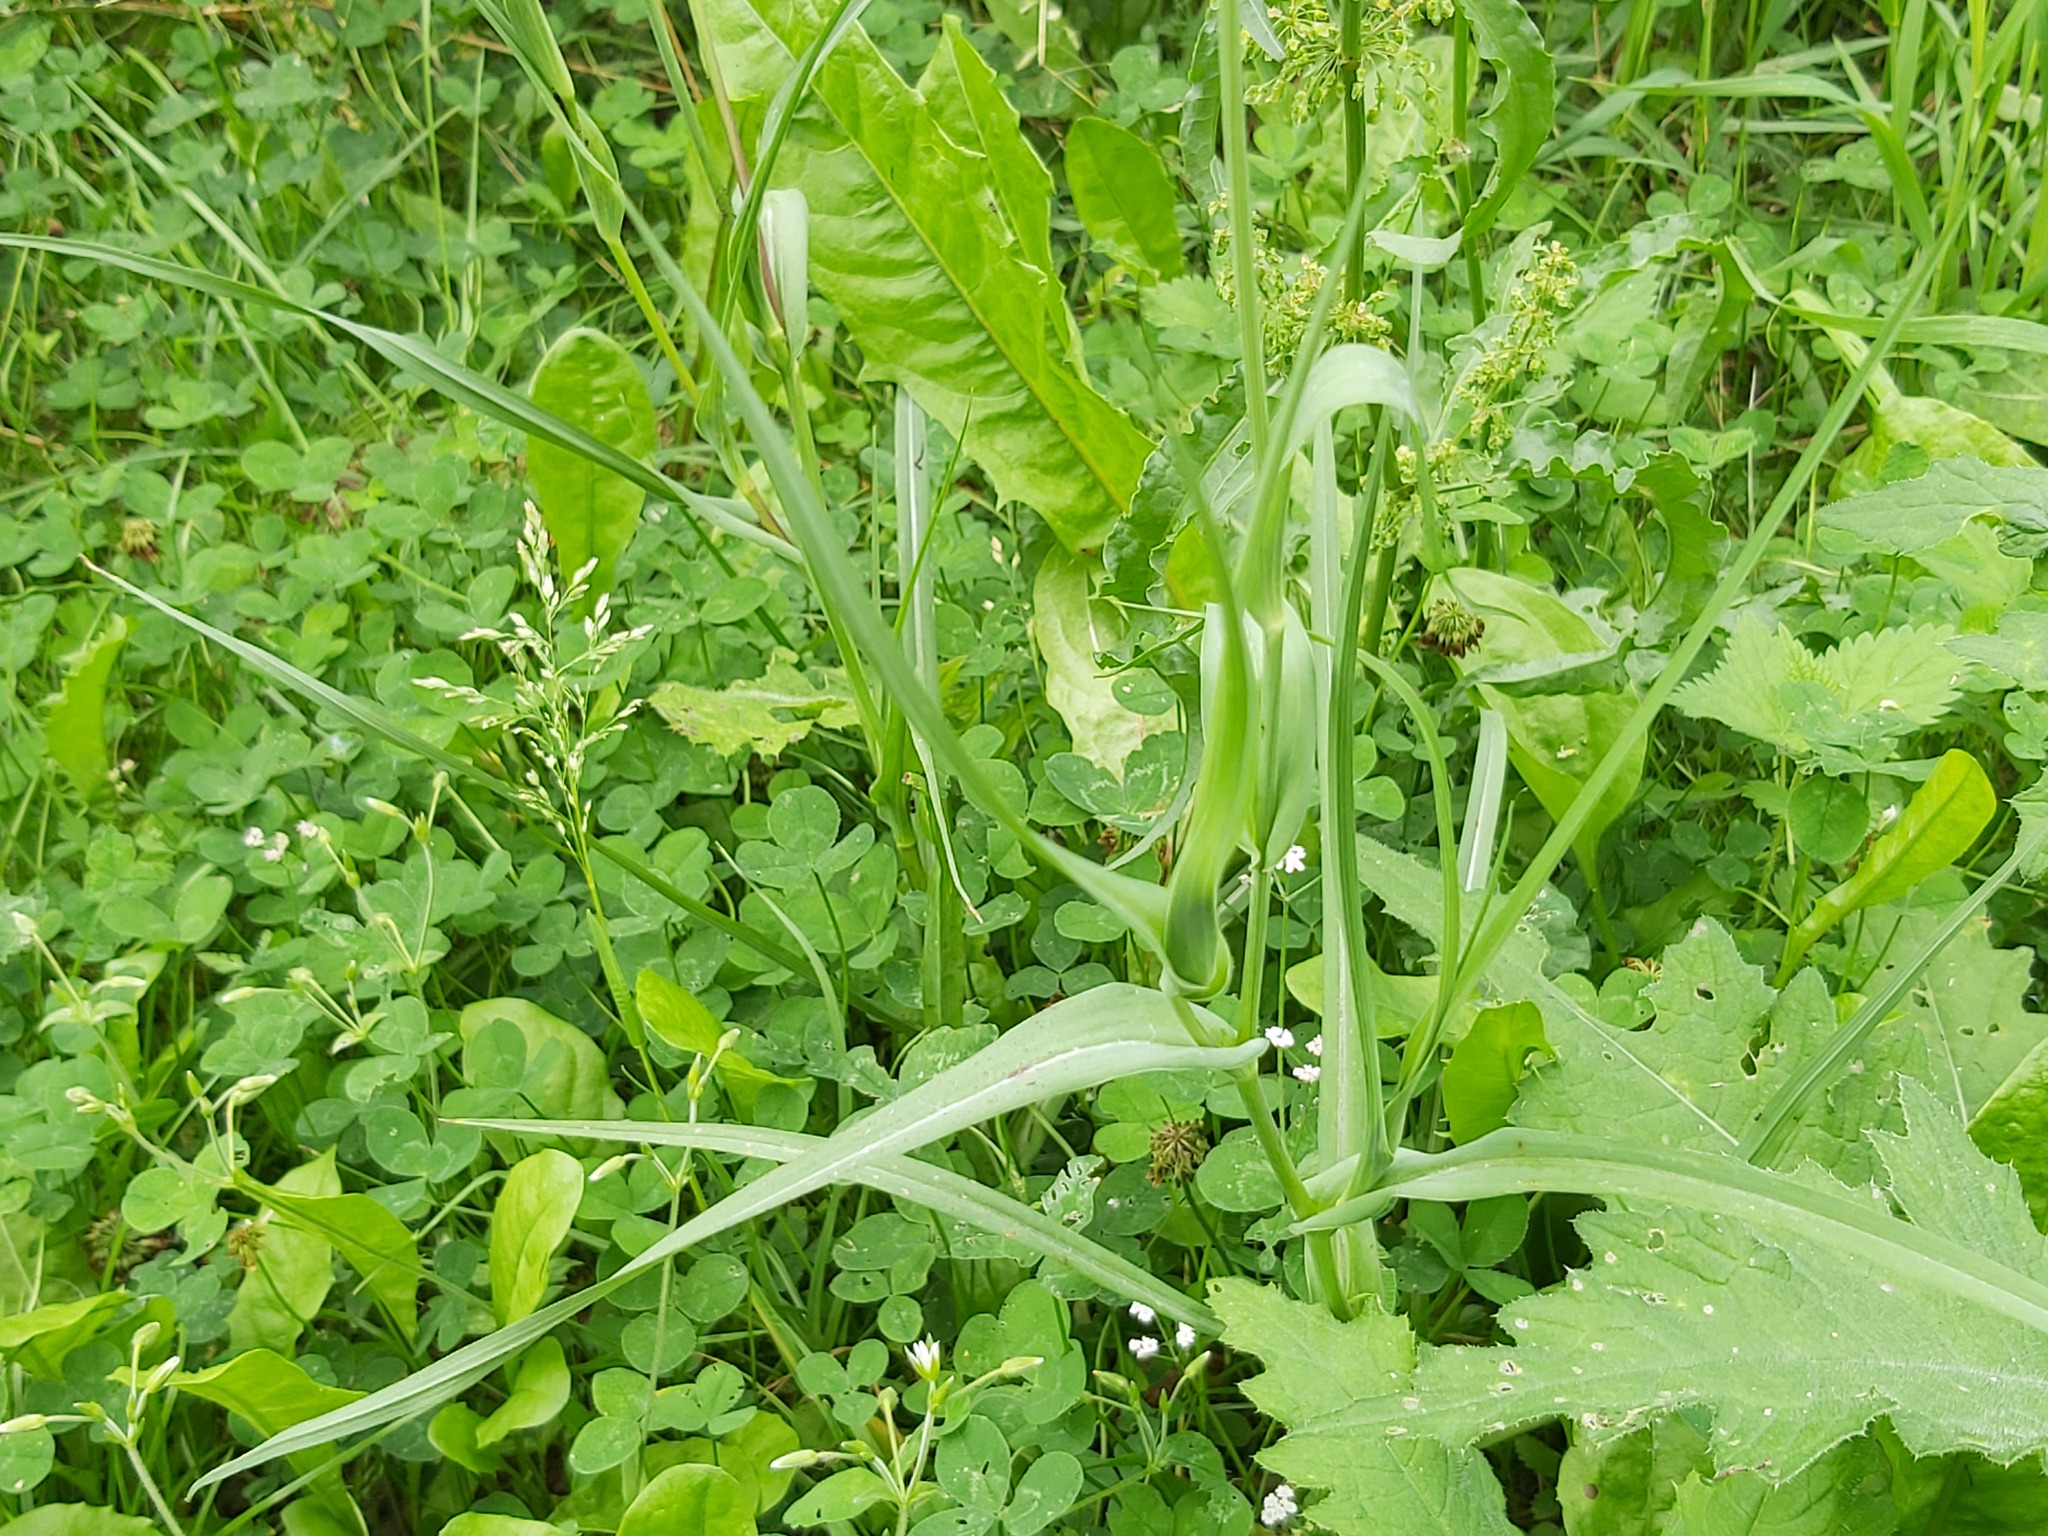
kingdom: Plantae
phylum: Tracheophyta
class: Magnoliopsida
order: Asterales
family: Asteraceae
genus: Tragopogon
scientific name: Tragopogon pratensis
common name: Goat's-beard
